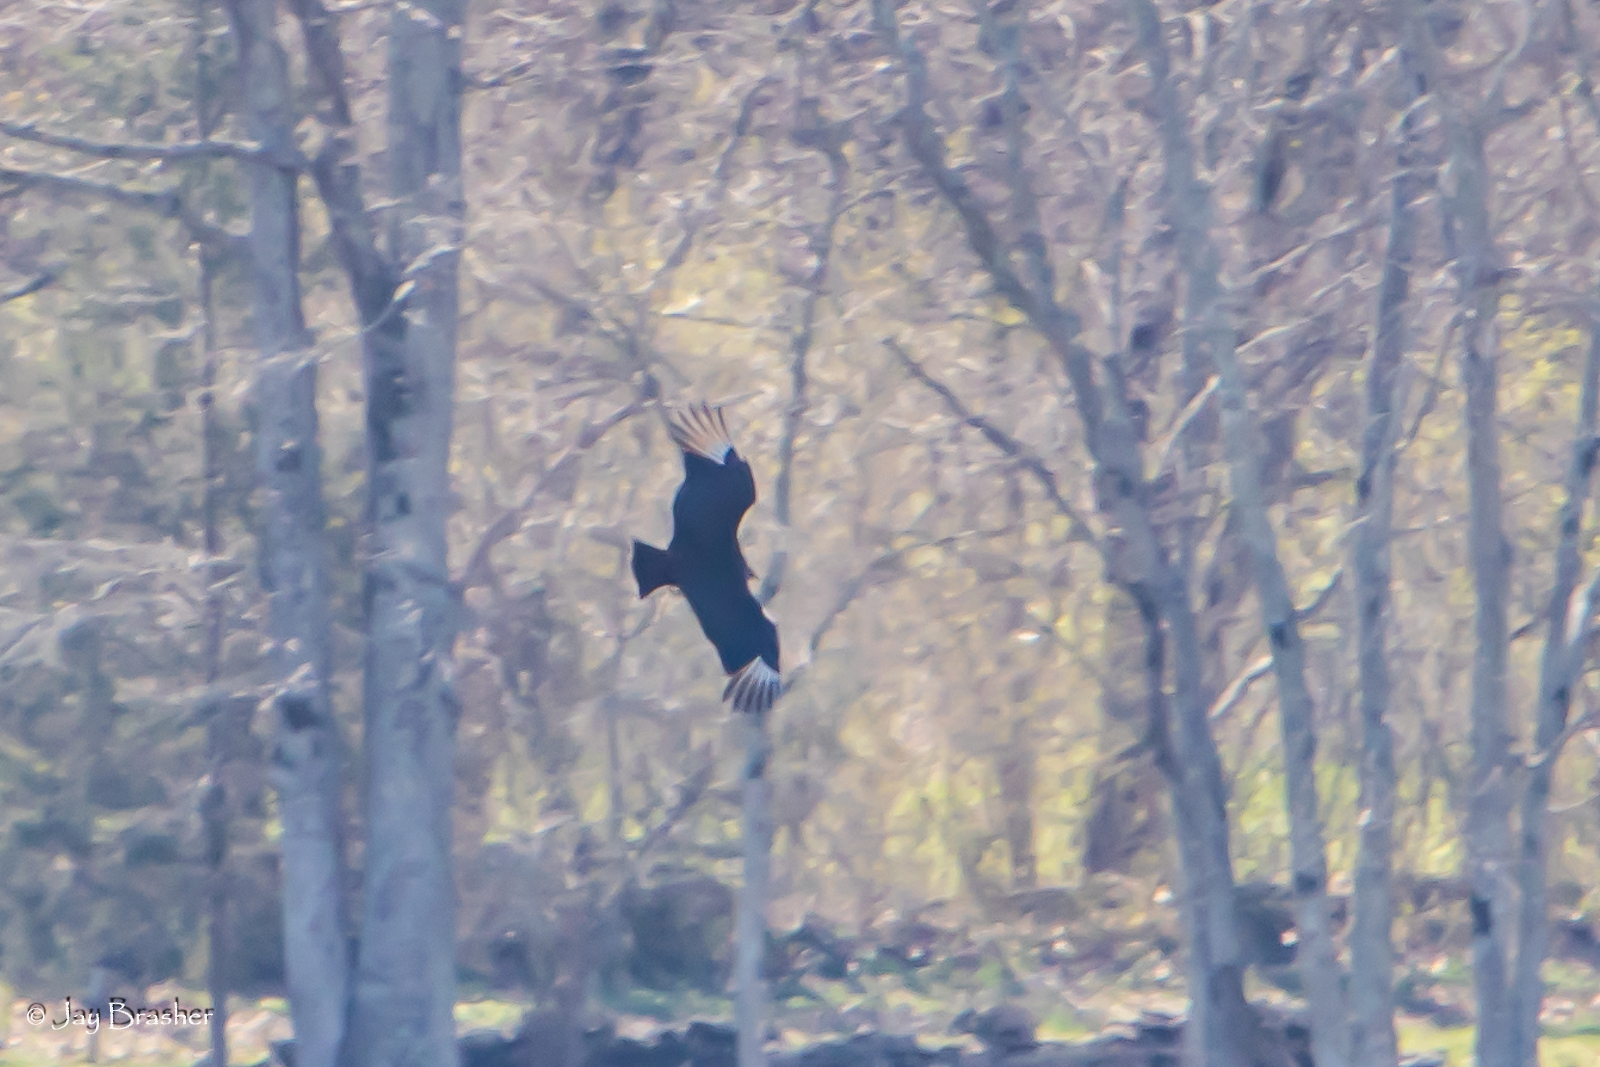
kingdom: Animalia
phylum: Chordata
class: Aves
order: Accipitriformes
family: Cathartidae
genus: Coragyps
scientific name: Coragyps atratus
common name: Black vulture
